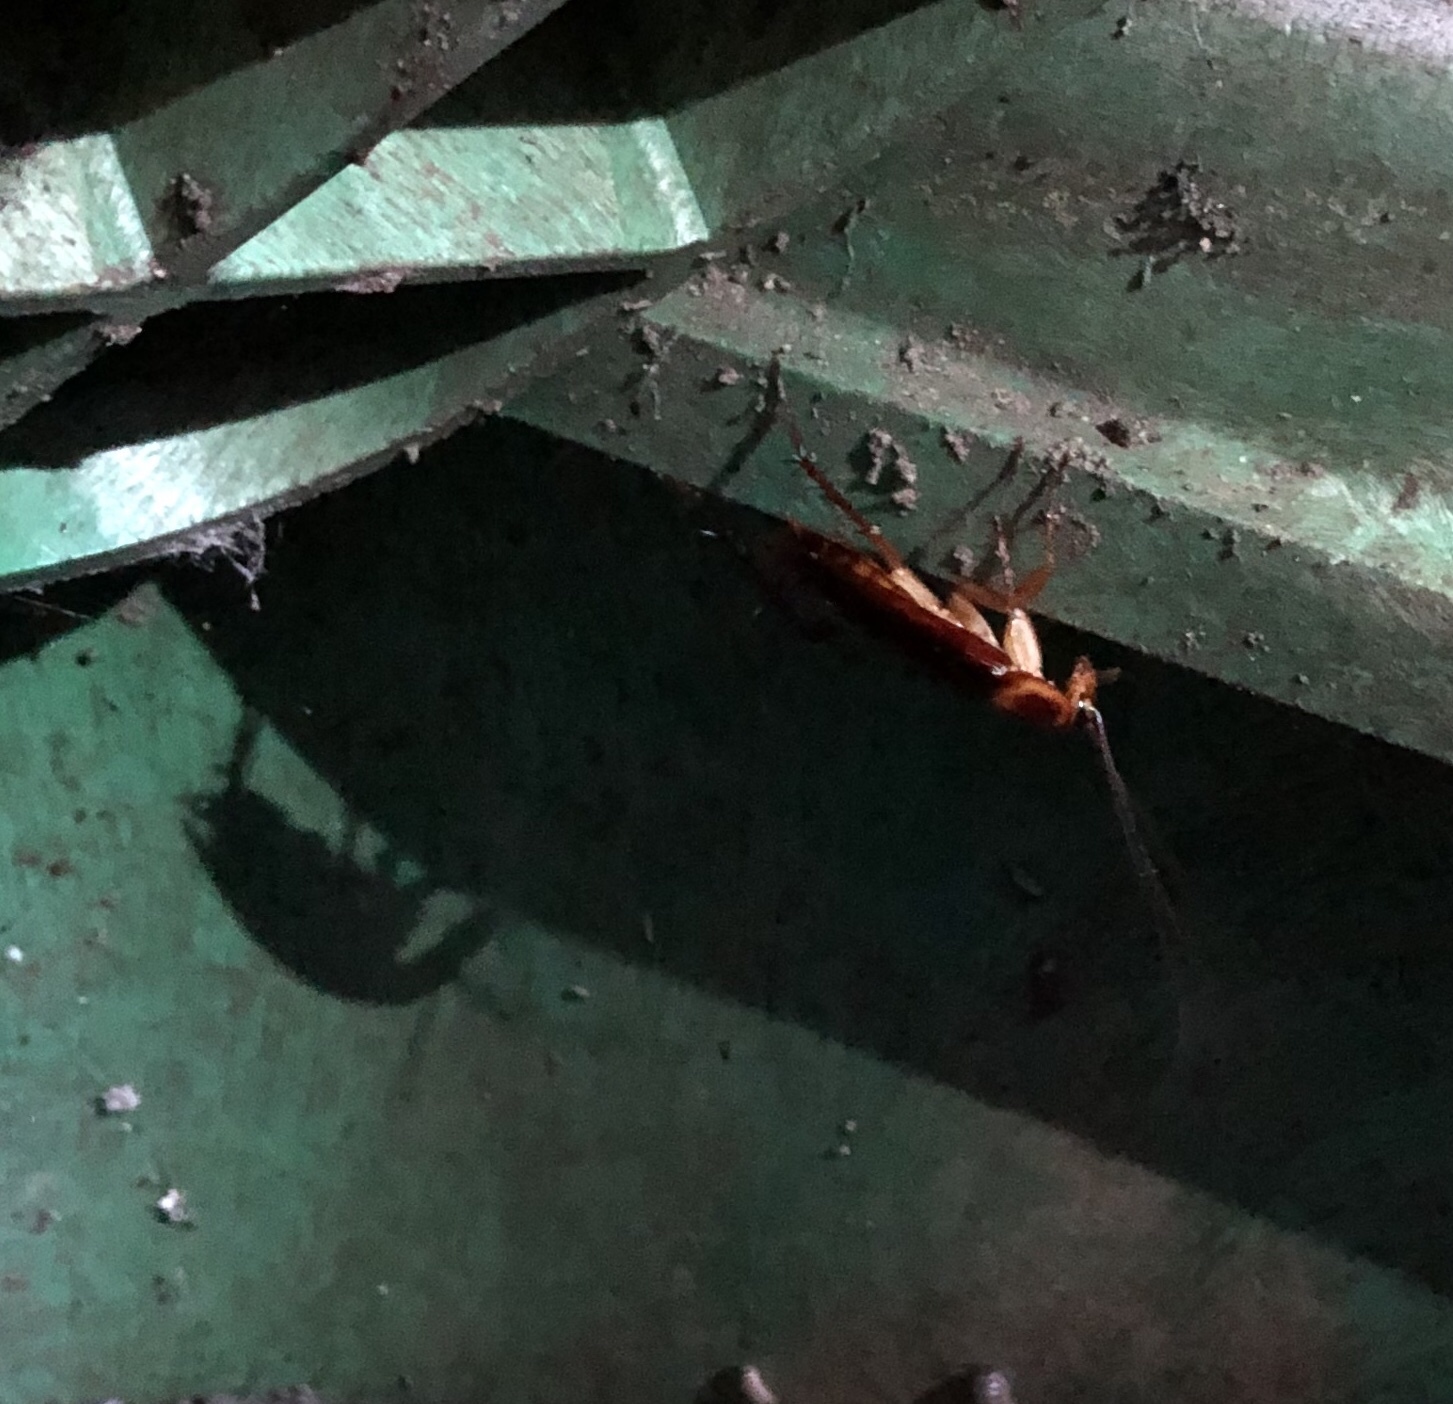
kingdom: Animalia
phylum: Arthropoda
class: Insecta
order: Blattodea
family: Blattidae
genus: Periplaneta
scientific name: Periplaneta americana
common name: American cockroach
